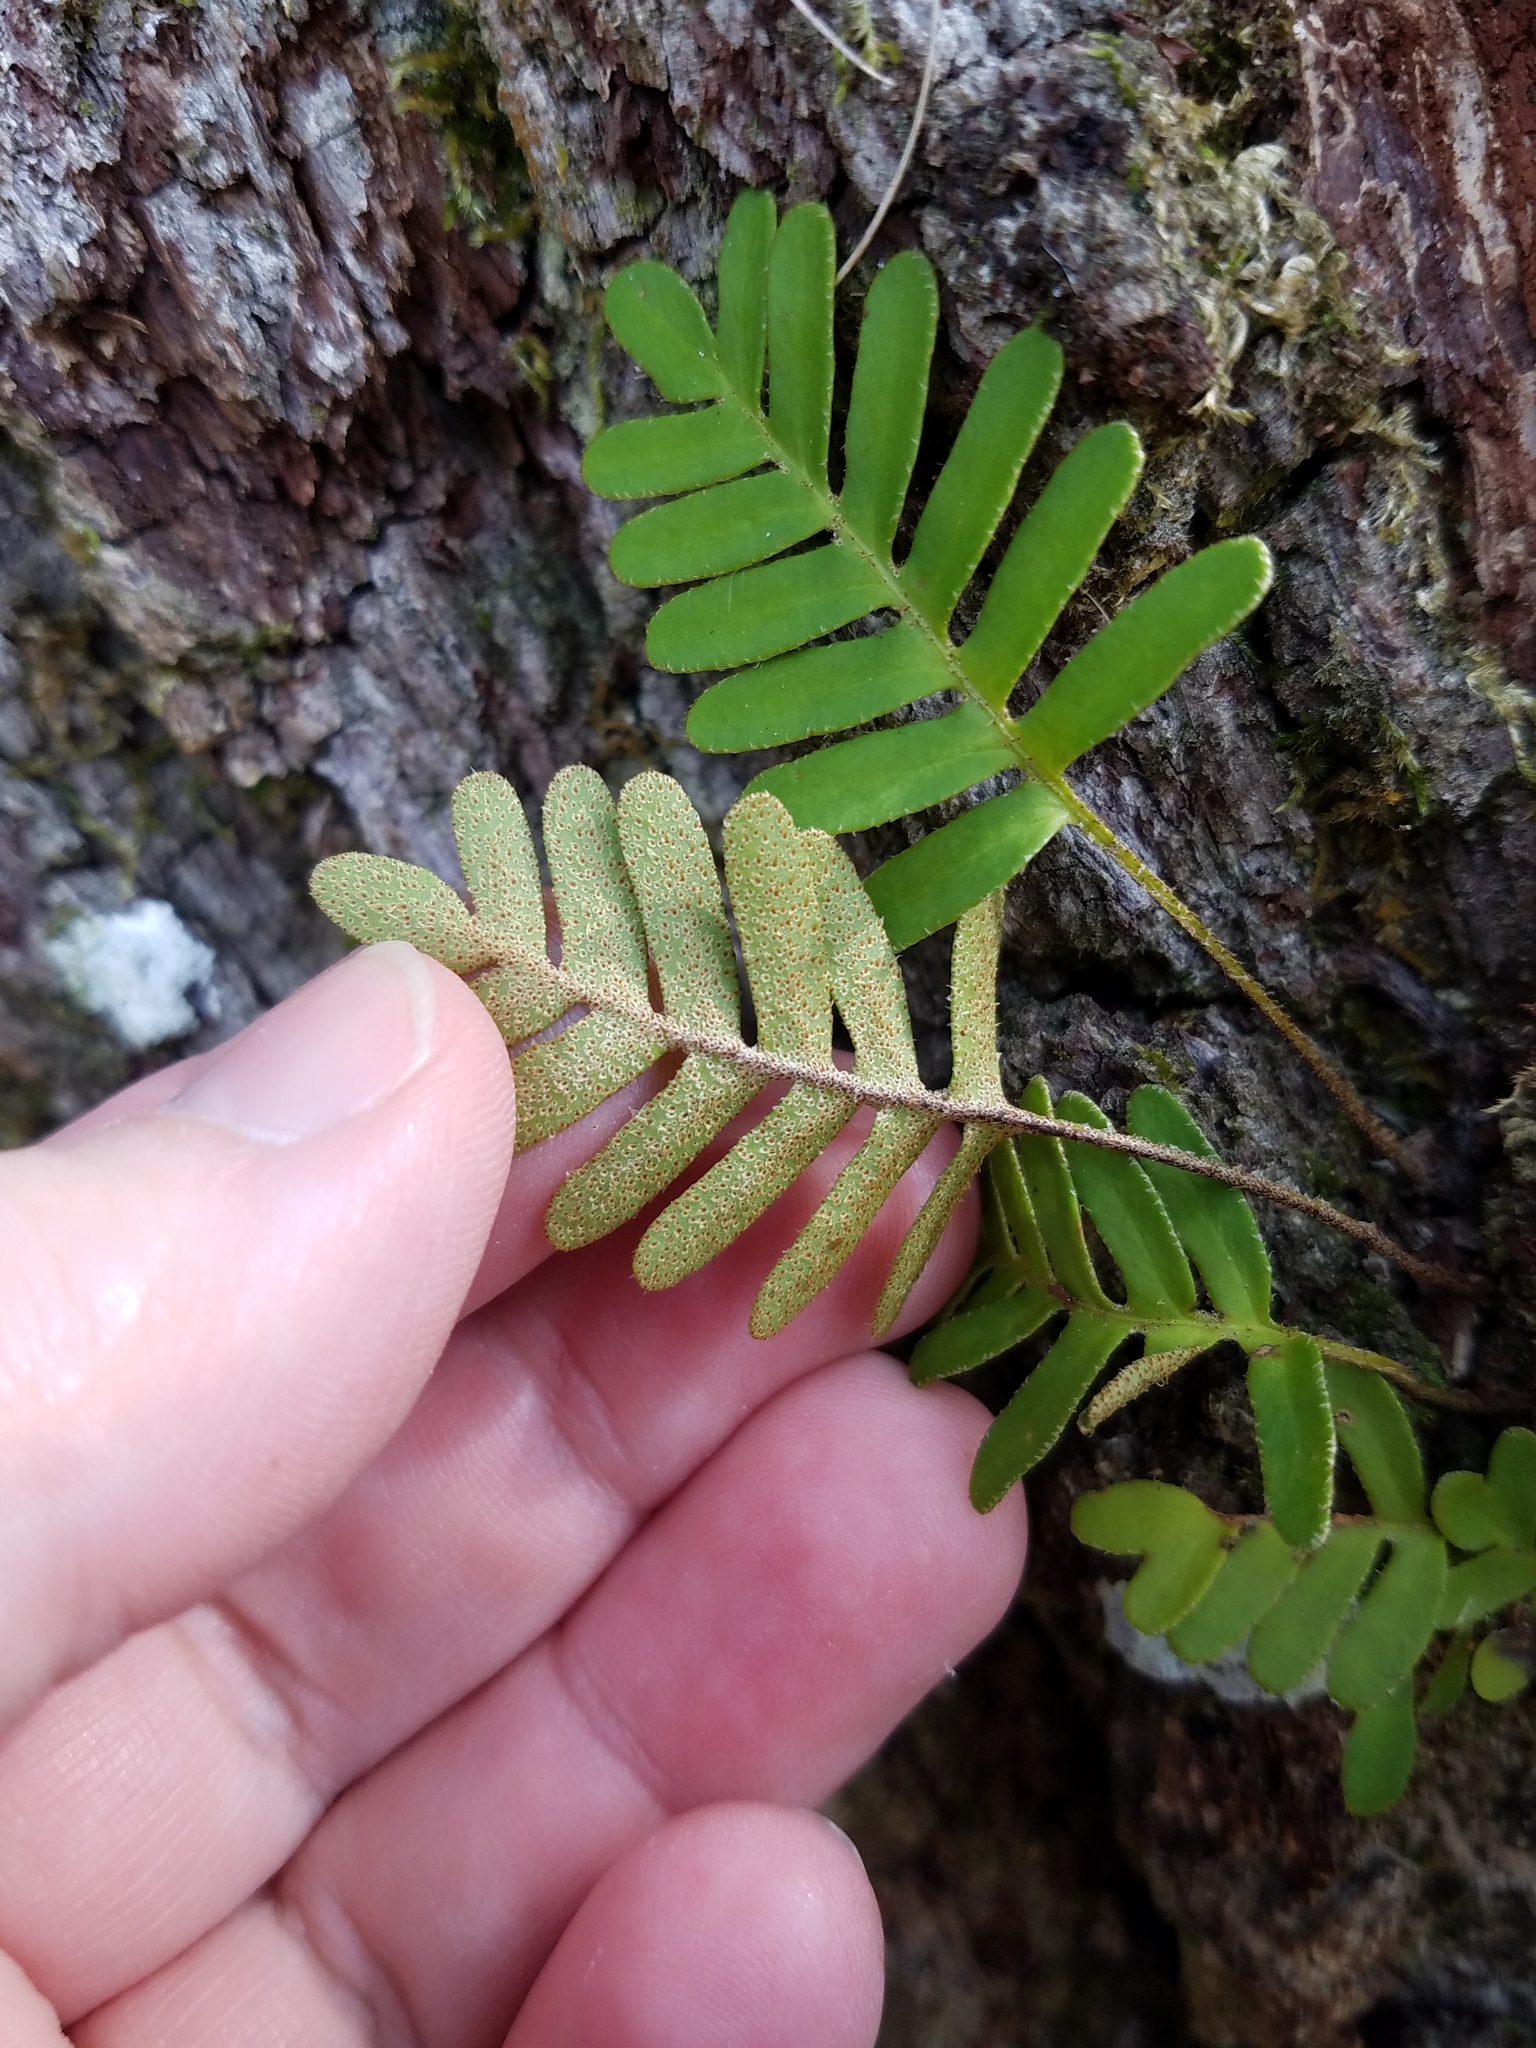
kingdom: Plantae
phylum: Tracheophyta
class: Polypodiopsida
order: Polypodiales
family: Polypodiaceae
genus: Pleopeltis
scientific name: Pleopeltis michauxiana
